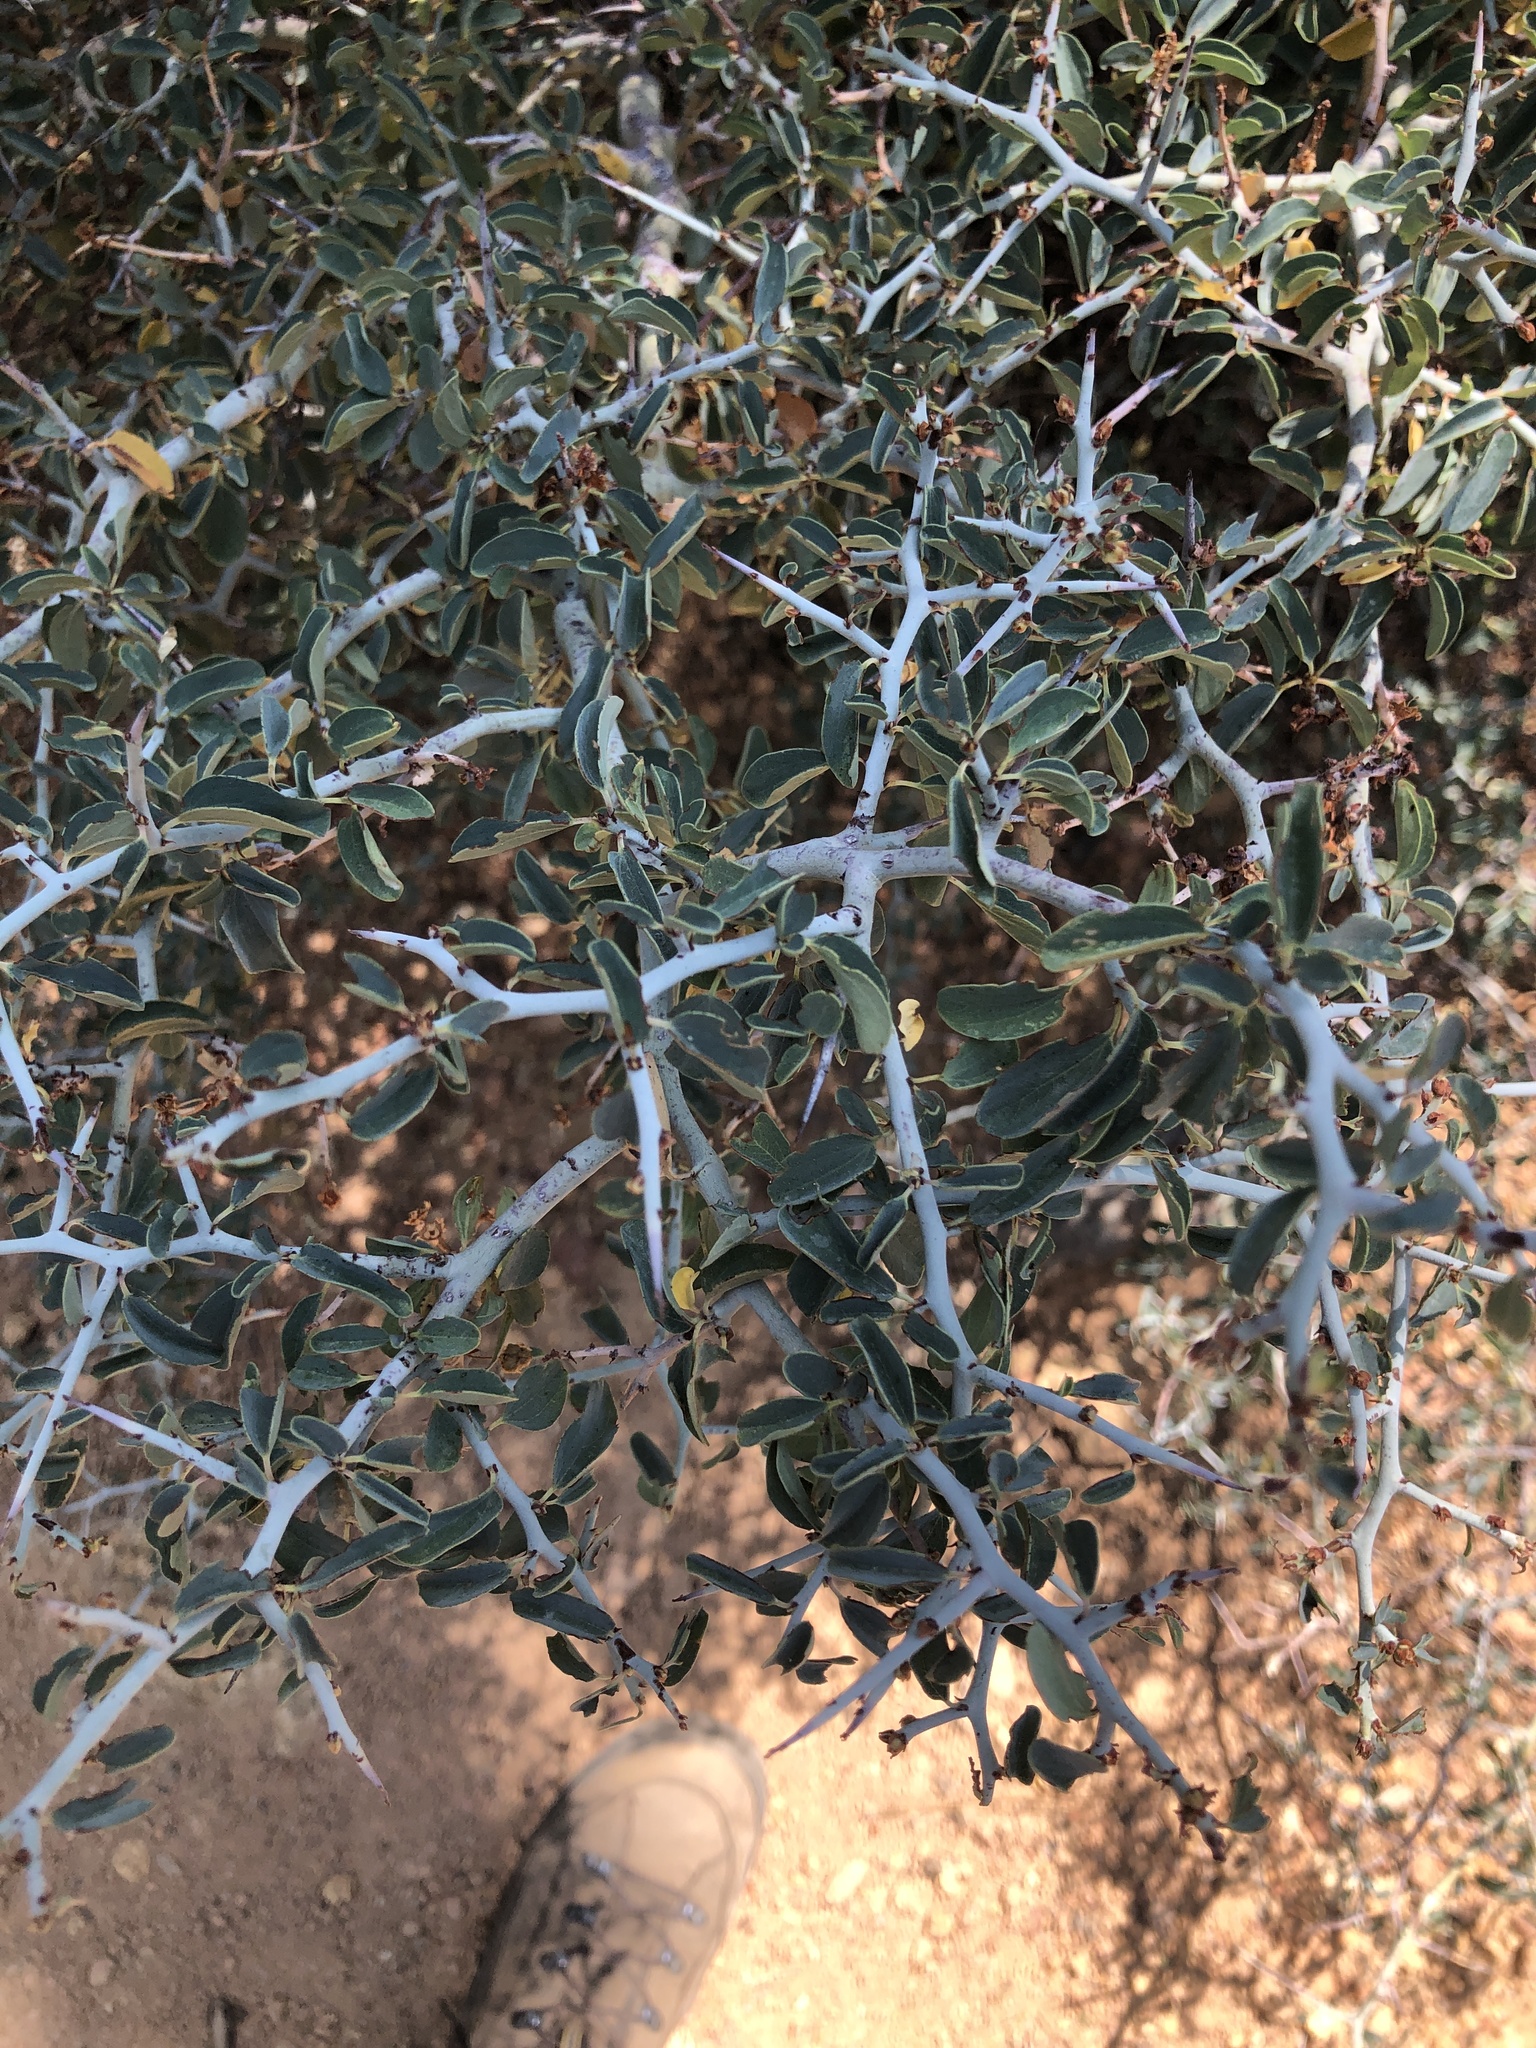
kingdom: Plantae
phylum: Tracheophyta
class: Magnoliopsida
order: Rosales
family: Rhamnaceae
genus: Ceanothus
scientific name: Ceanothus cordulatus
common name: Mountain whitethorn
